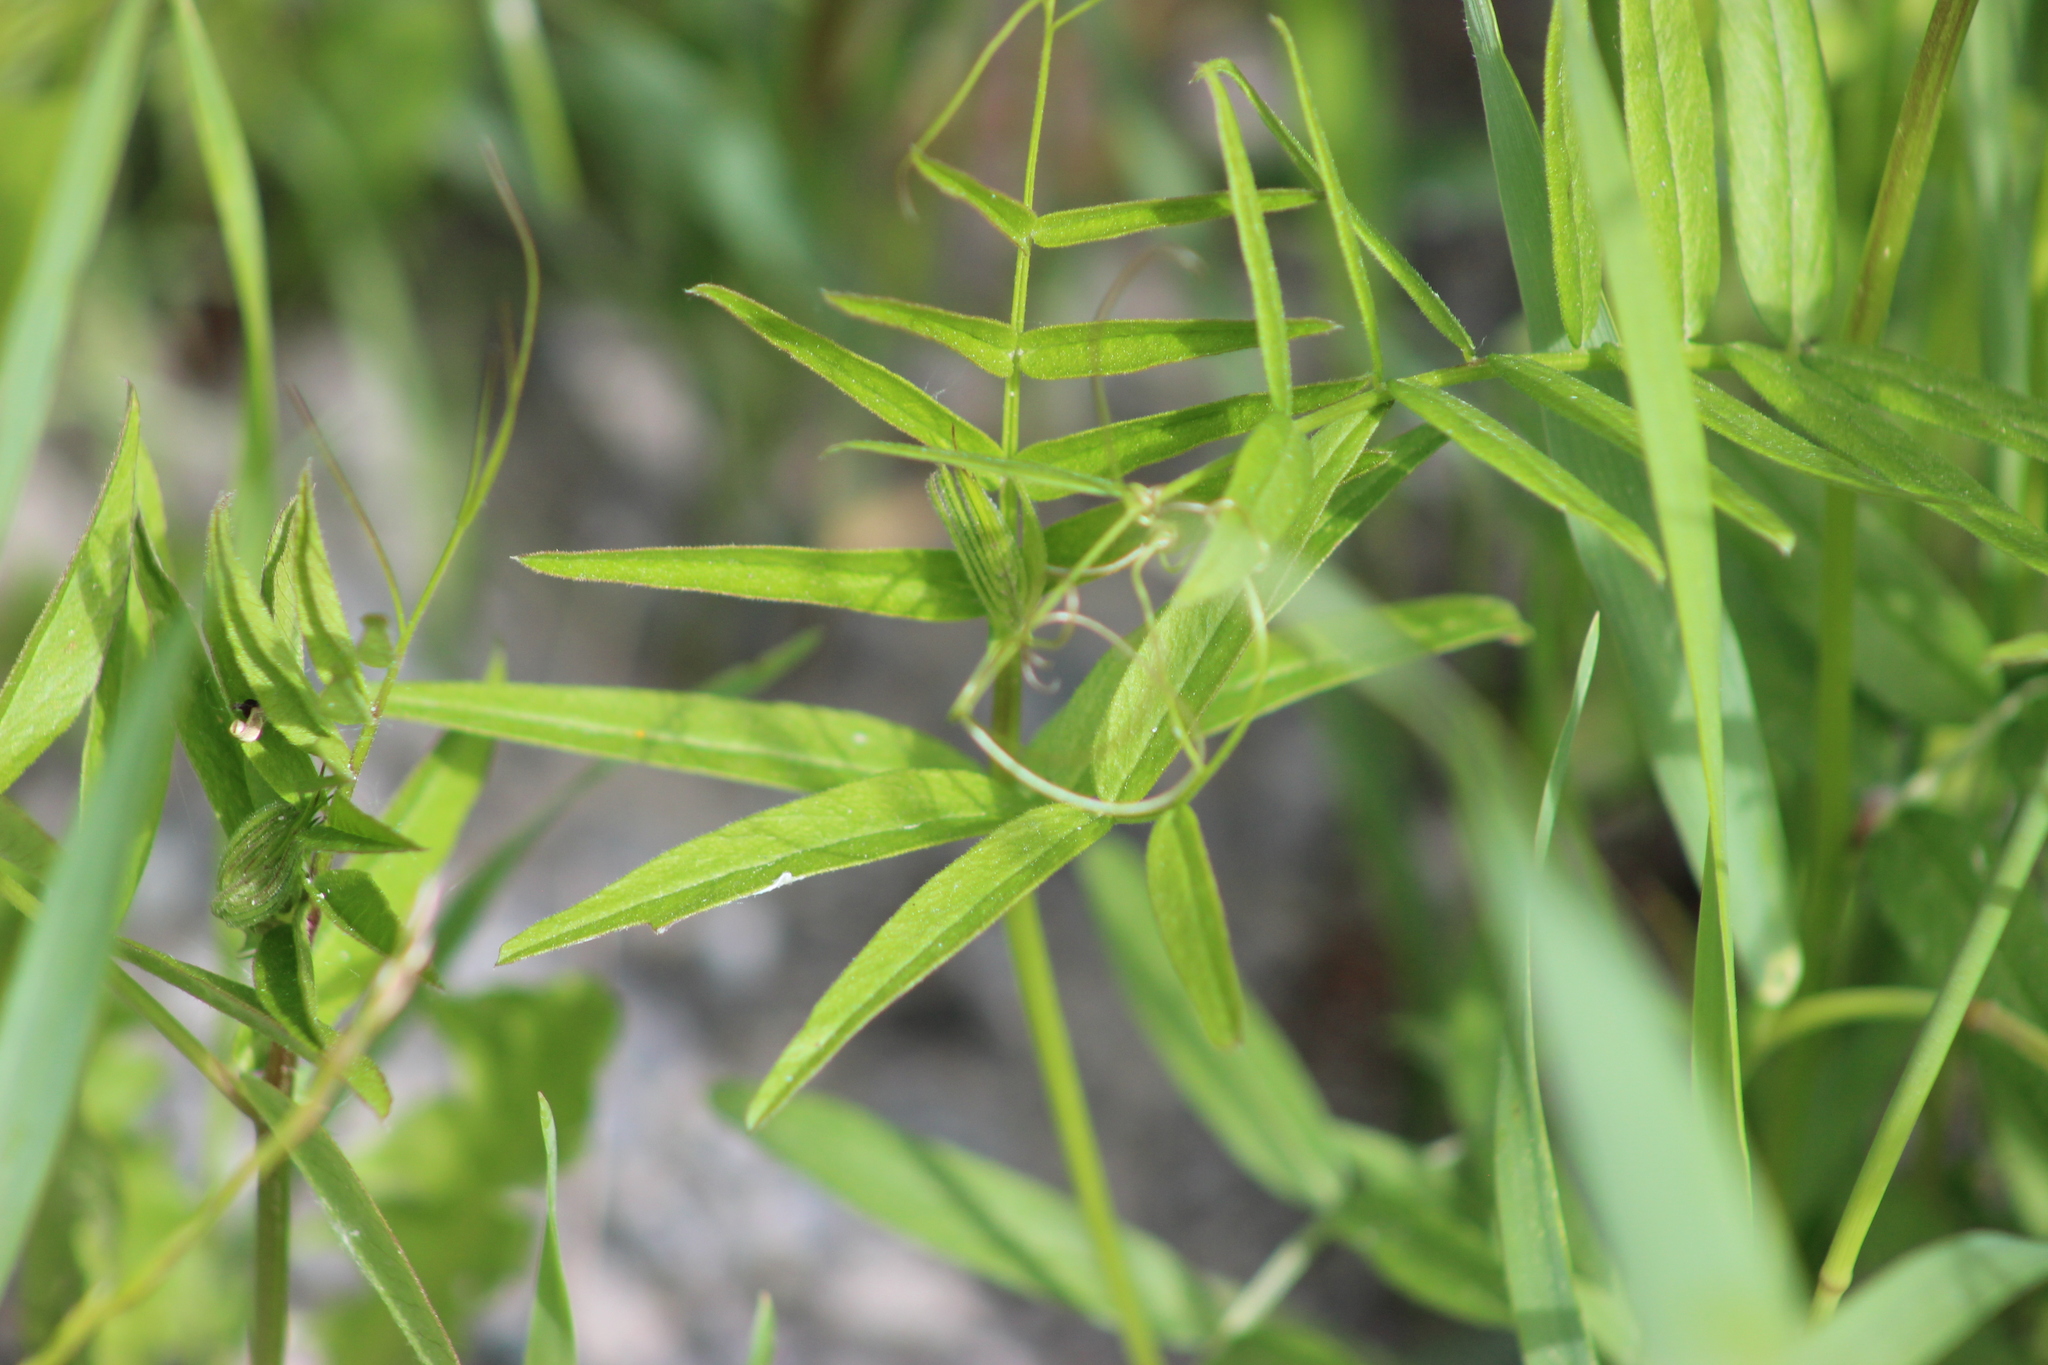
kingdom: Plantae
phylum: Tracheophyta
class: Magnoliopsida
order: Fabales
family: Fabaceae
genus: Vicia
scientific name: Vicia sepium
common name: Bush vetch
